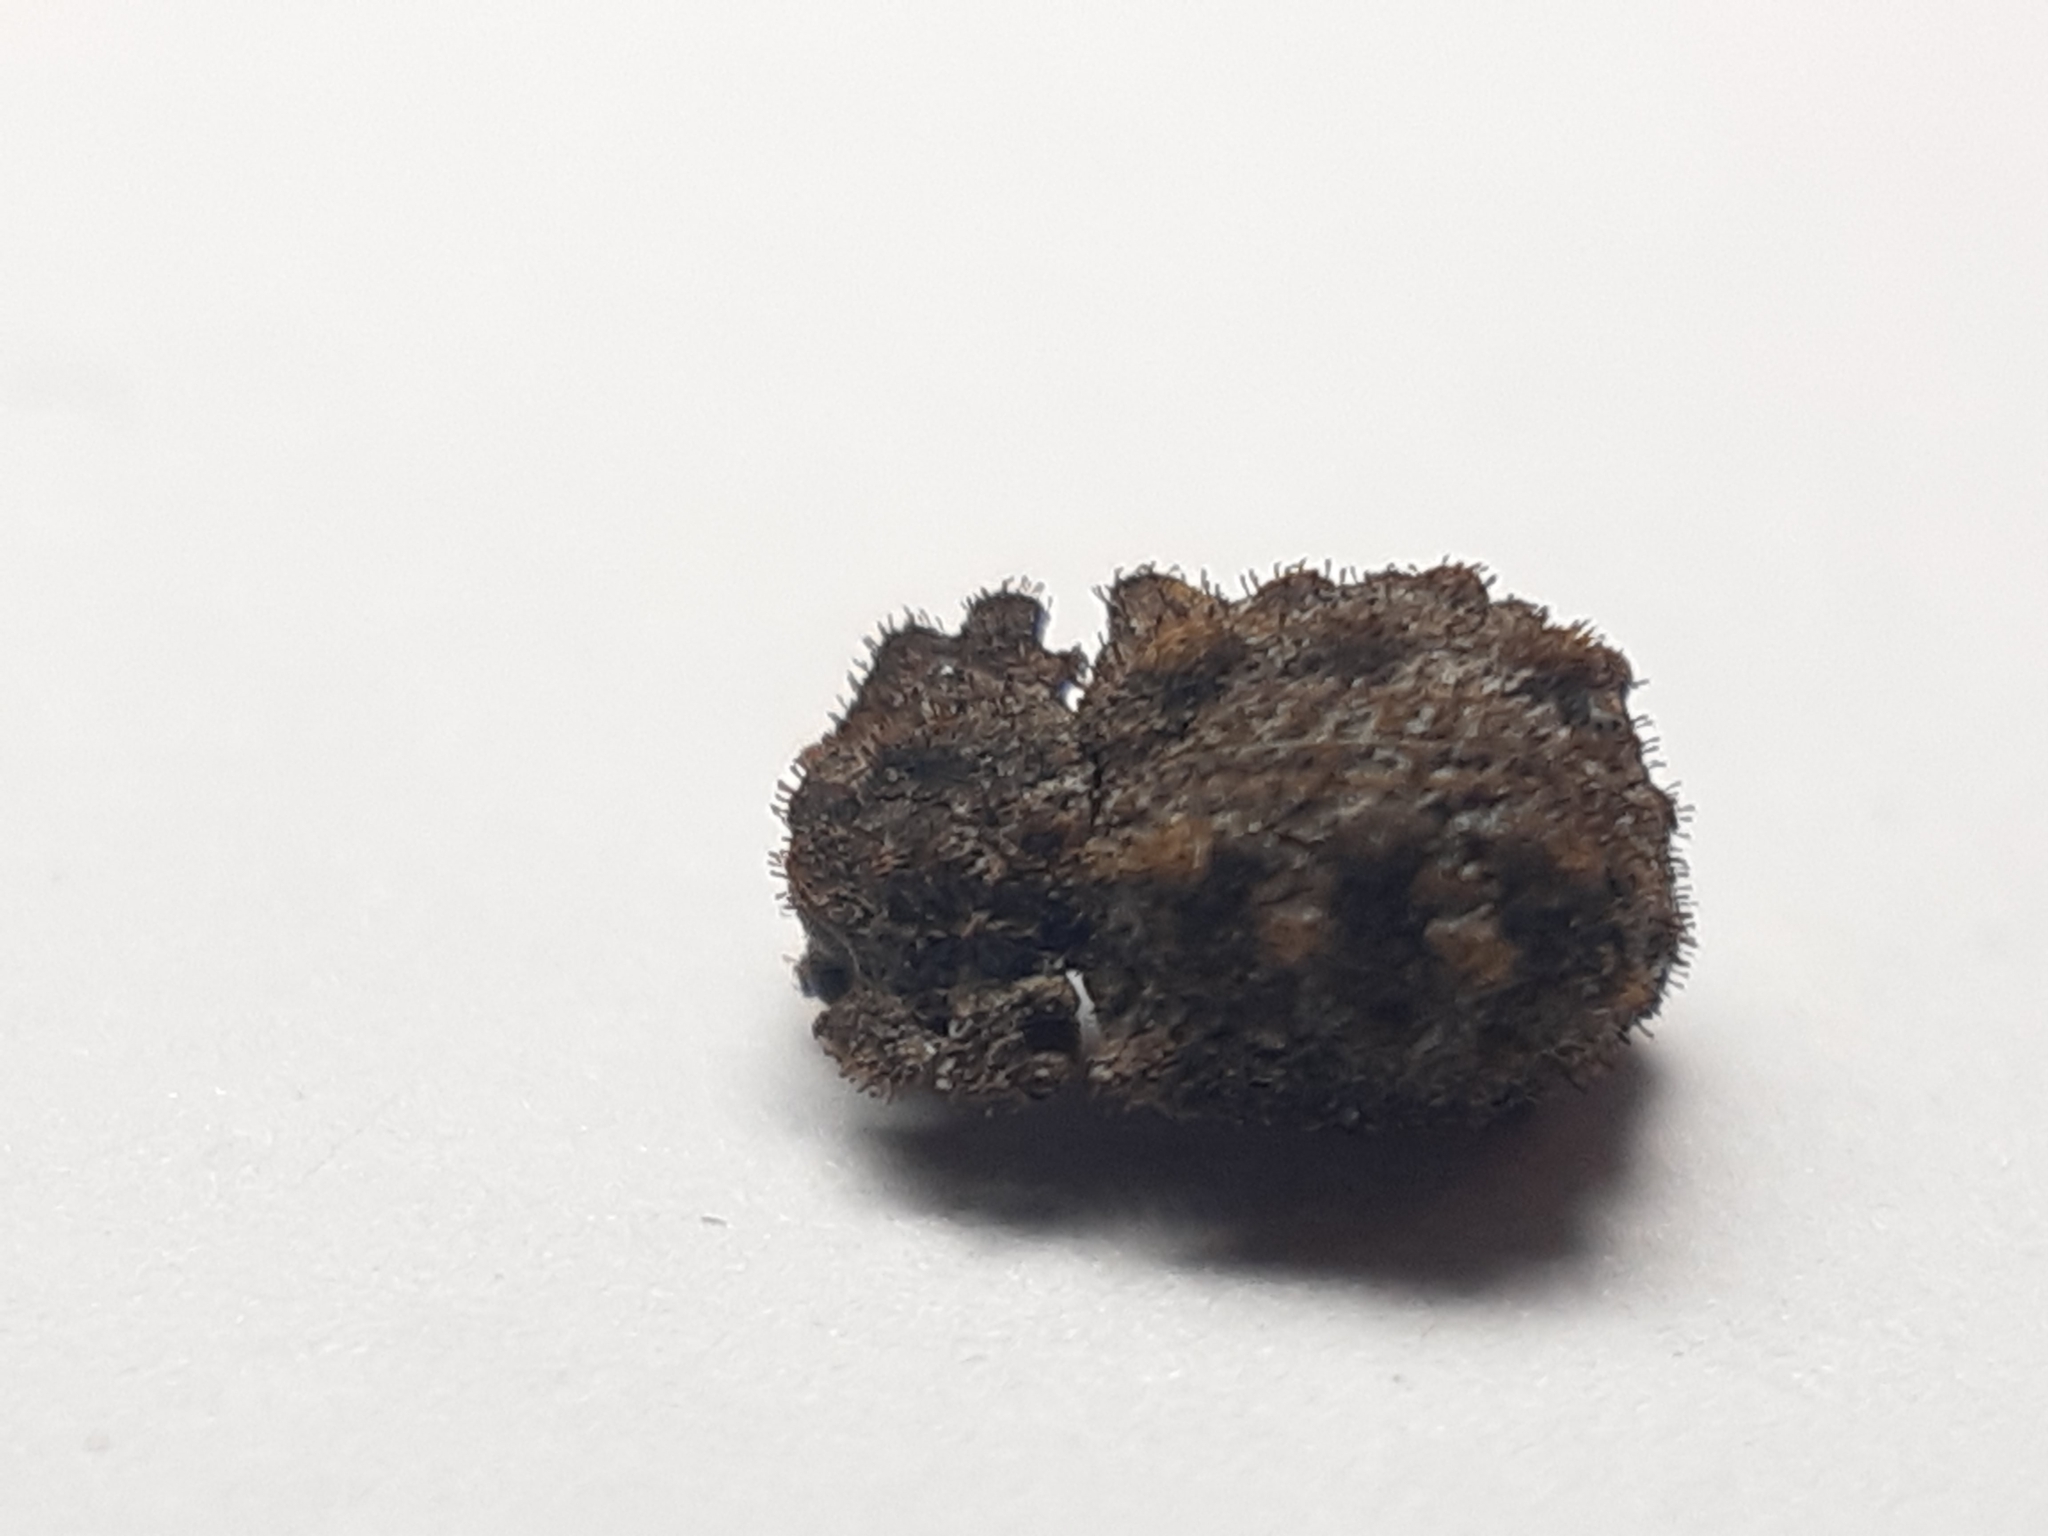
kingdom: Animalia
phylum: Arthropoda
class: Insecta
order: Coleoptera
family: Zopheridae
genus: Pristoderus
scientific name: Pristoderus
